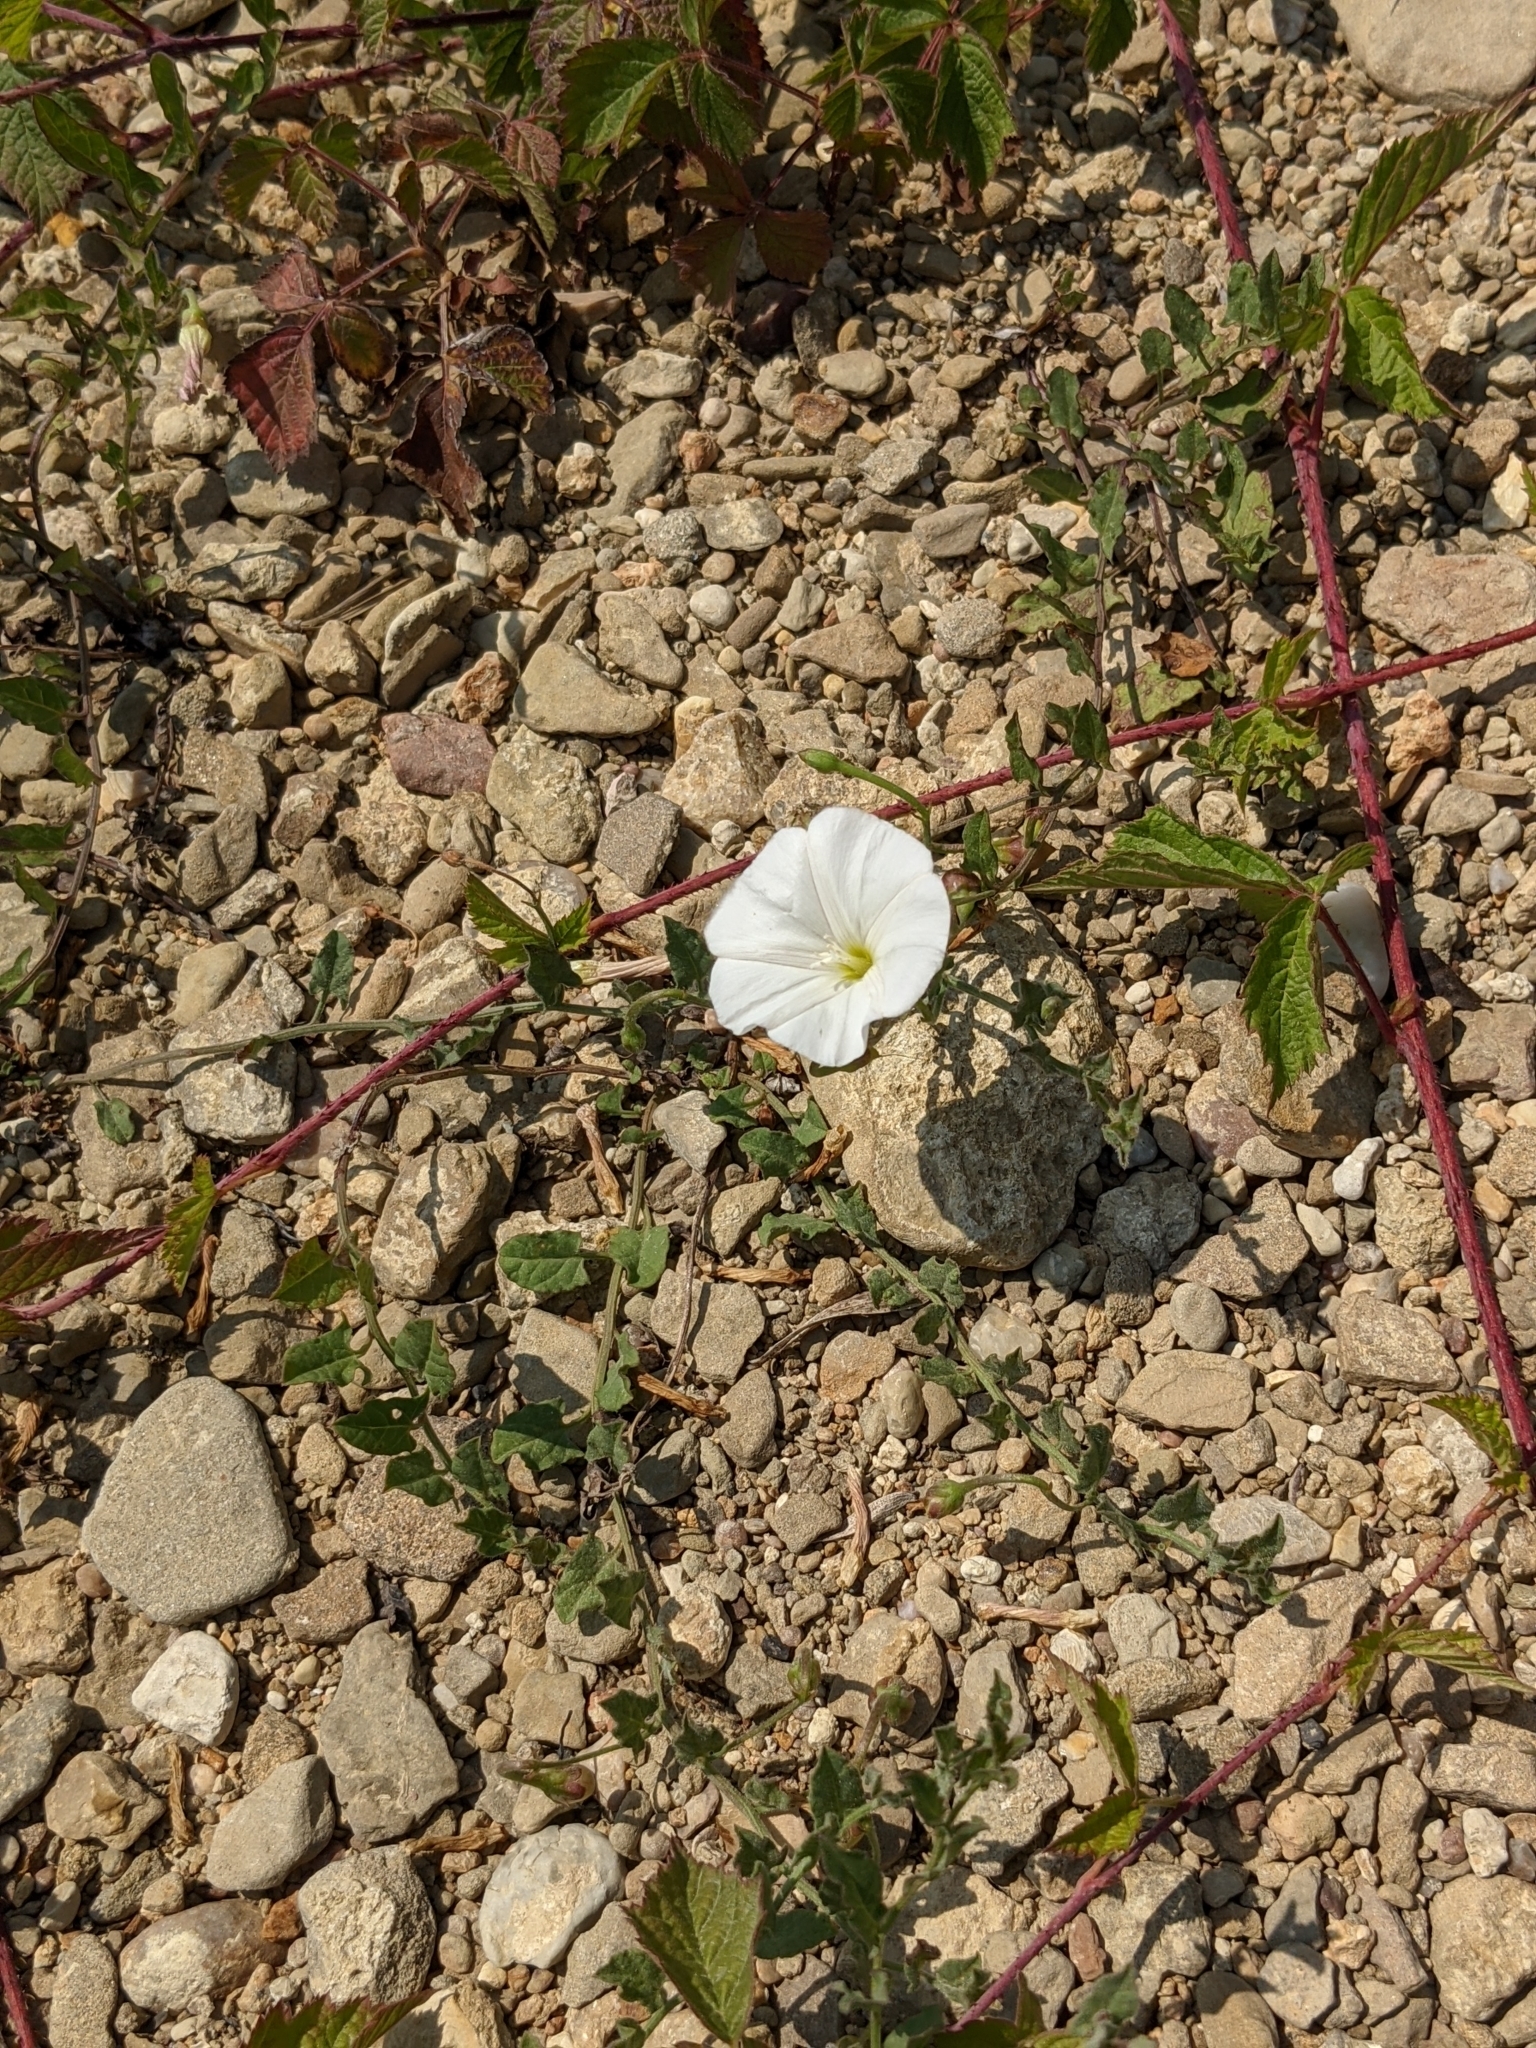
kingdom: Plantae
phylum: Tracheophyta
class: Magnoliopsida
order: Solanales
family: Convolvulaceae
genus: Convolvulus
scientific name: Convolvulus arvensis
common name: Field bindweed
